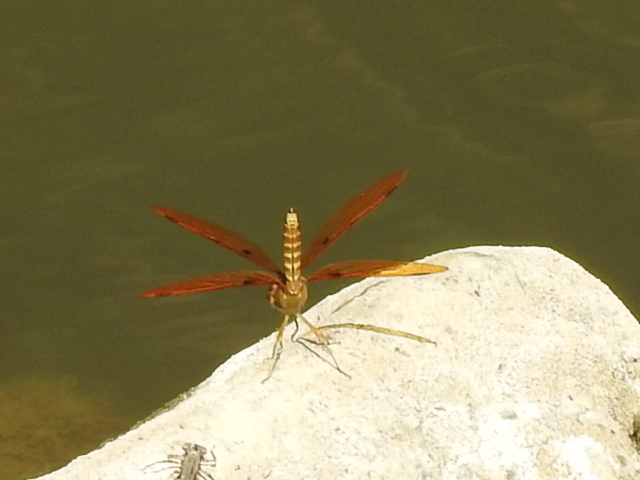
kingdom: Animalia
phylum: Arthropoda
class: Insecta
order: Odonata
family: Libellulidae
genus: Perithemis
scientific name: Perithemis tenera
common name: Eastern amberwing
